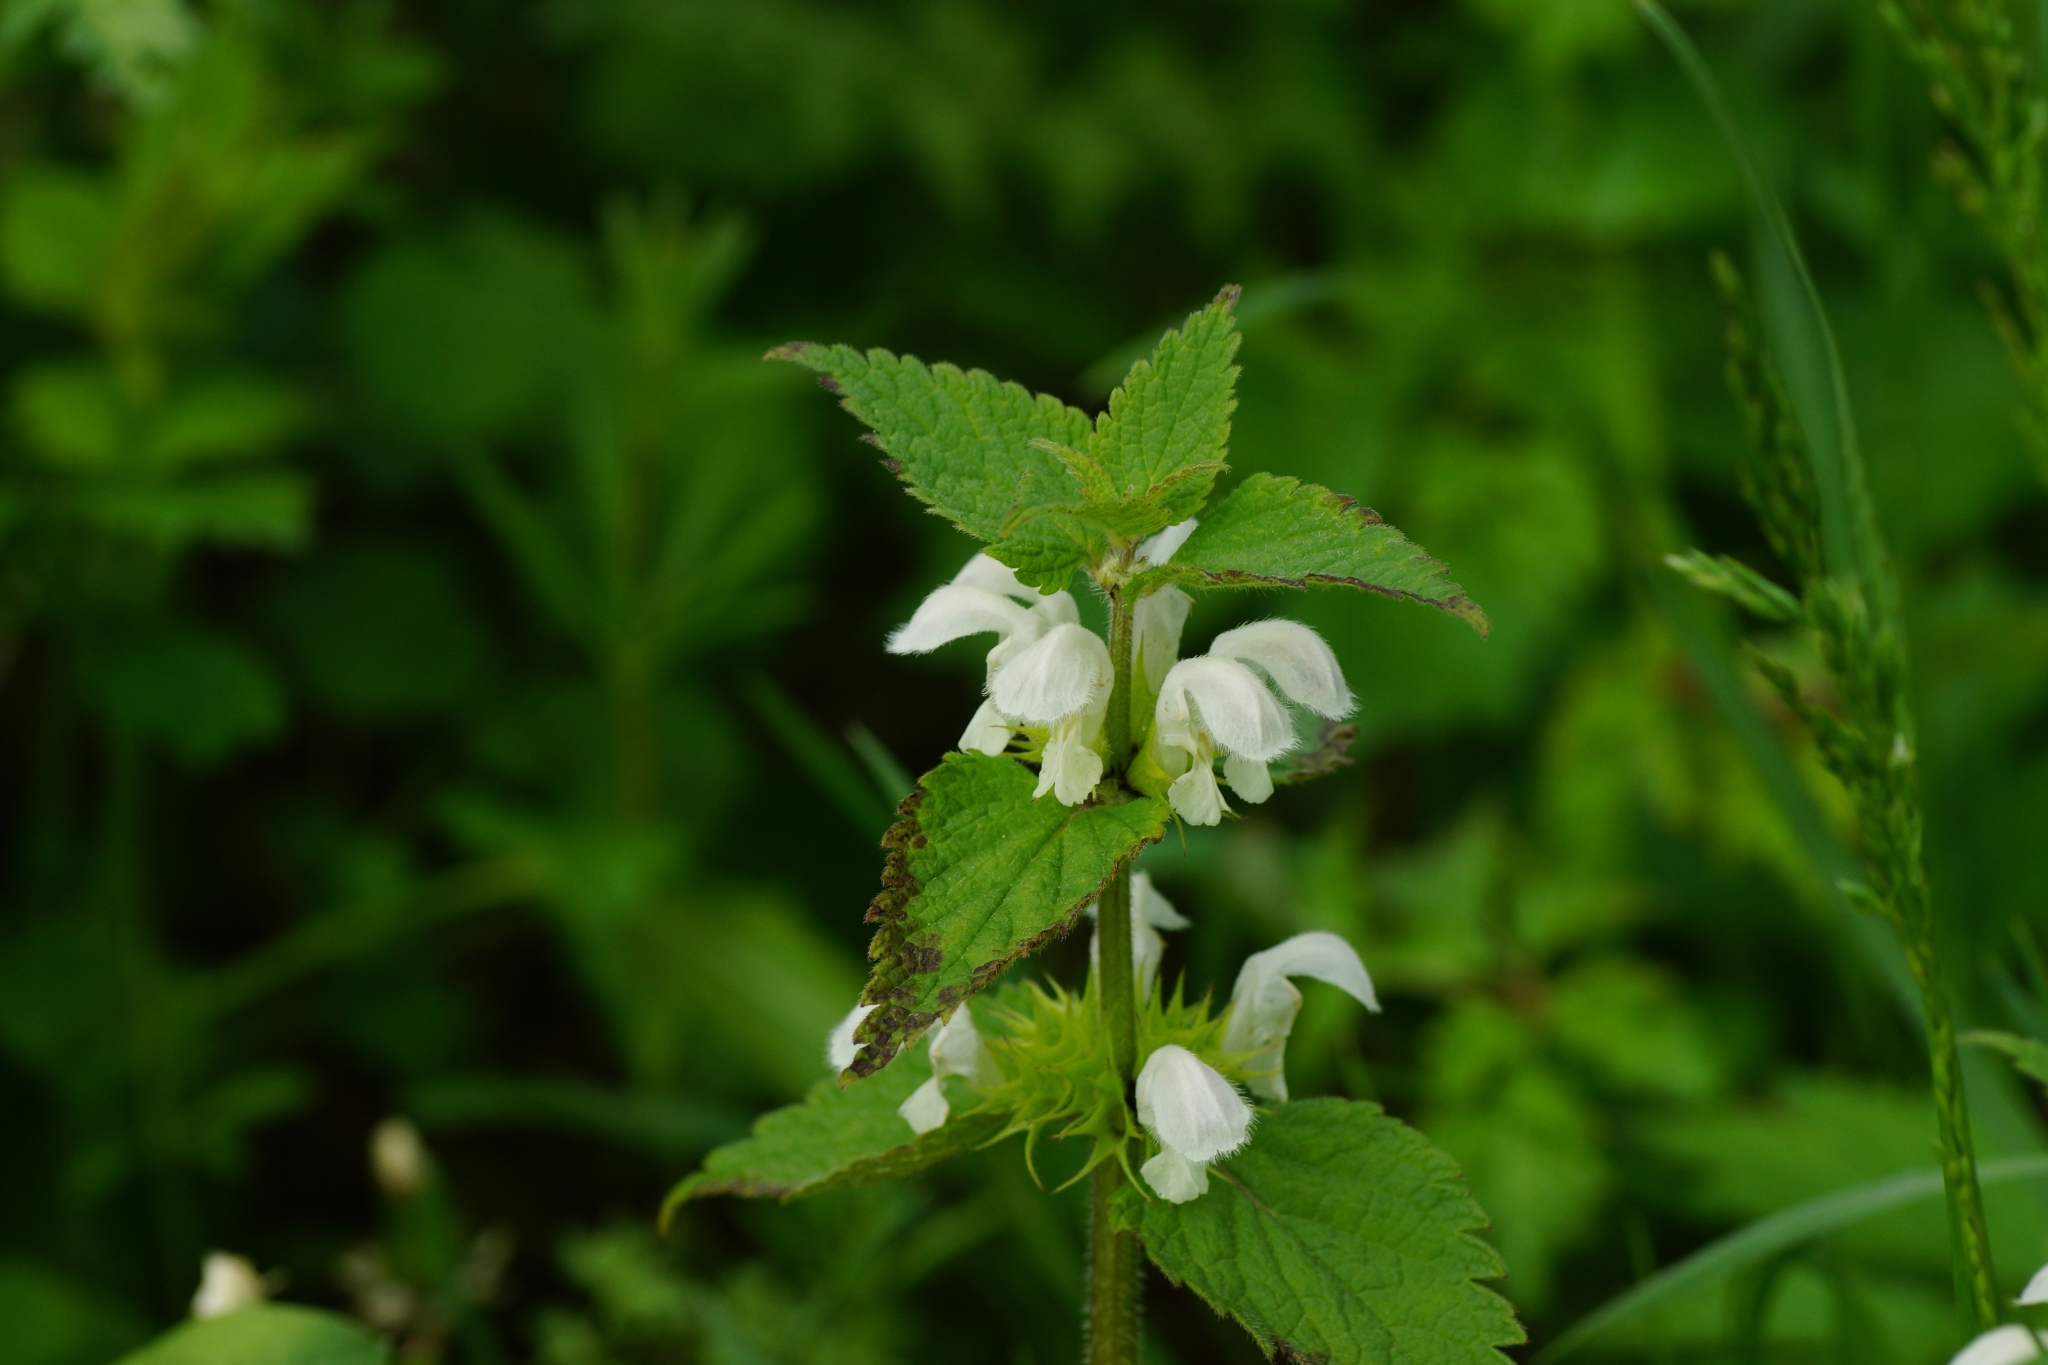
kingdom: Plantae
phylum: Tracheophyta
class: Magnoliopsida
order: Lamiales
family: Lamiaceae
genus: Lamium
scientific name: Lamium album
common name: White dead-nettle
